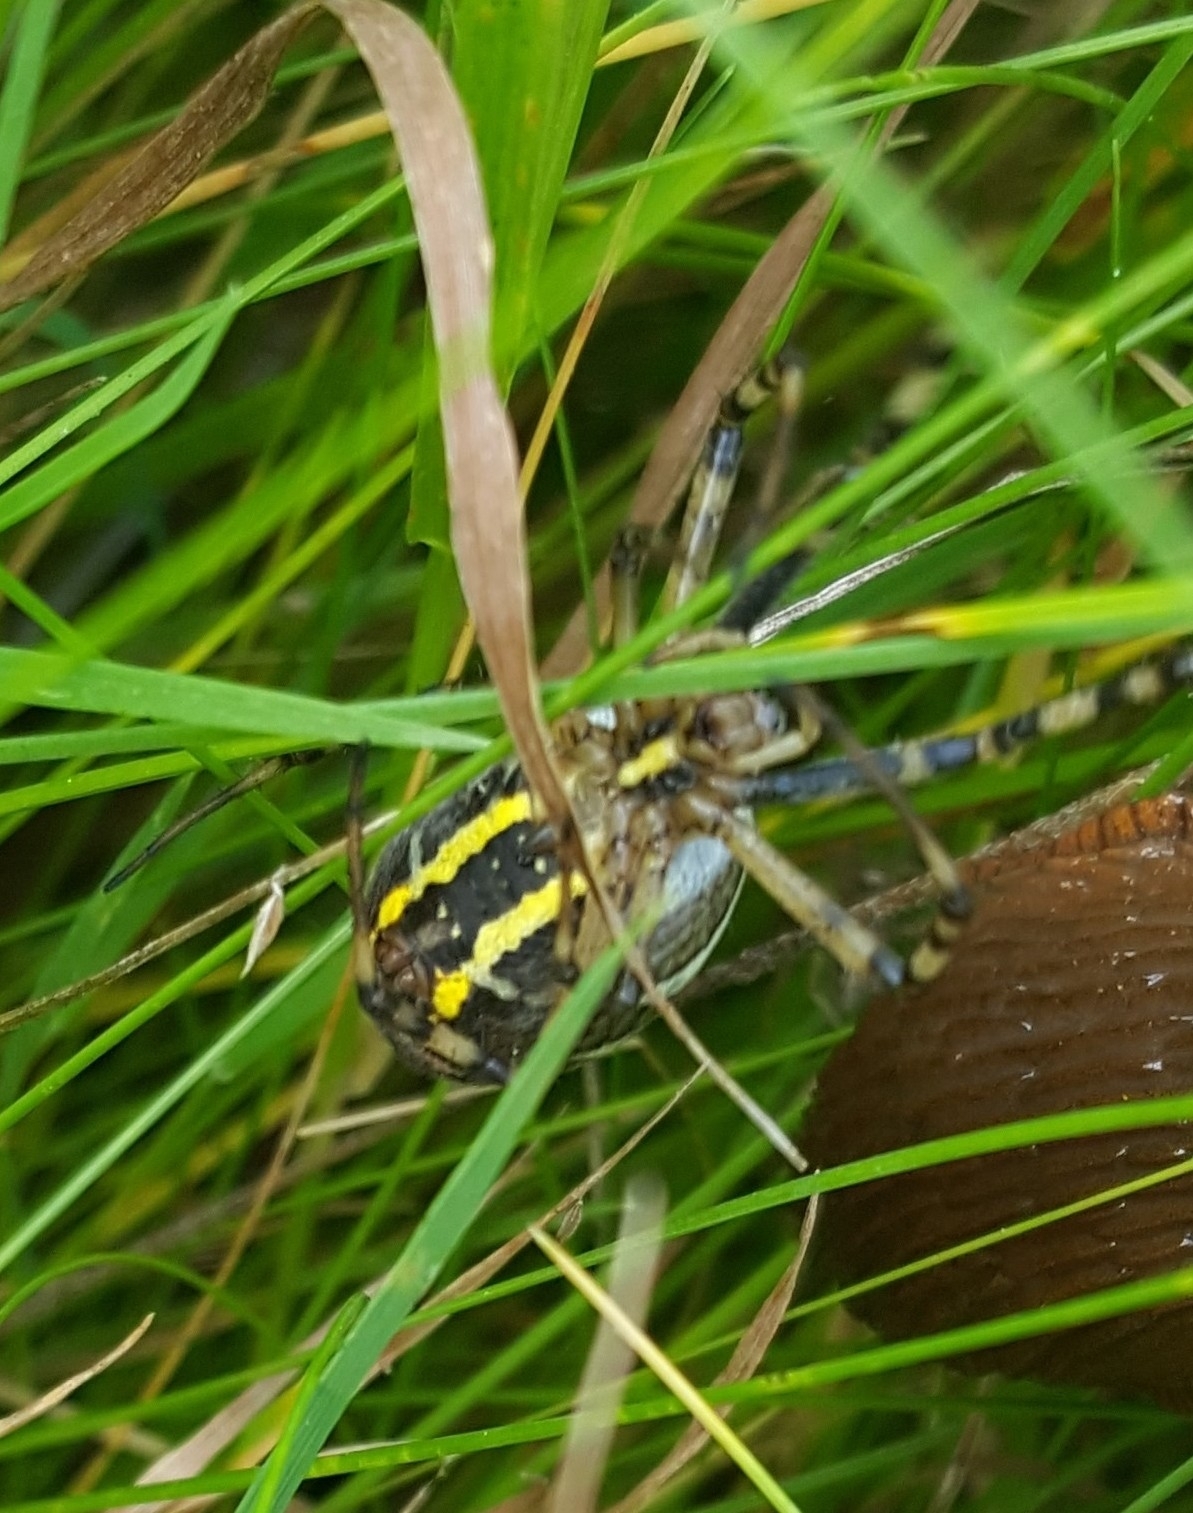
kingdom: Animalia
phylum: Arthropoda
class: Arachnida
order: Araneae
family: Araneidae
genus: Argiope
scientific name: Argiope bruennichi
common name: Wasp spider
